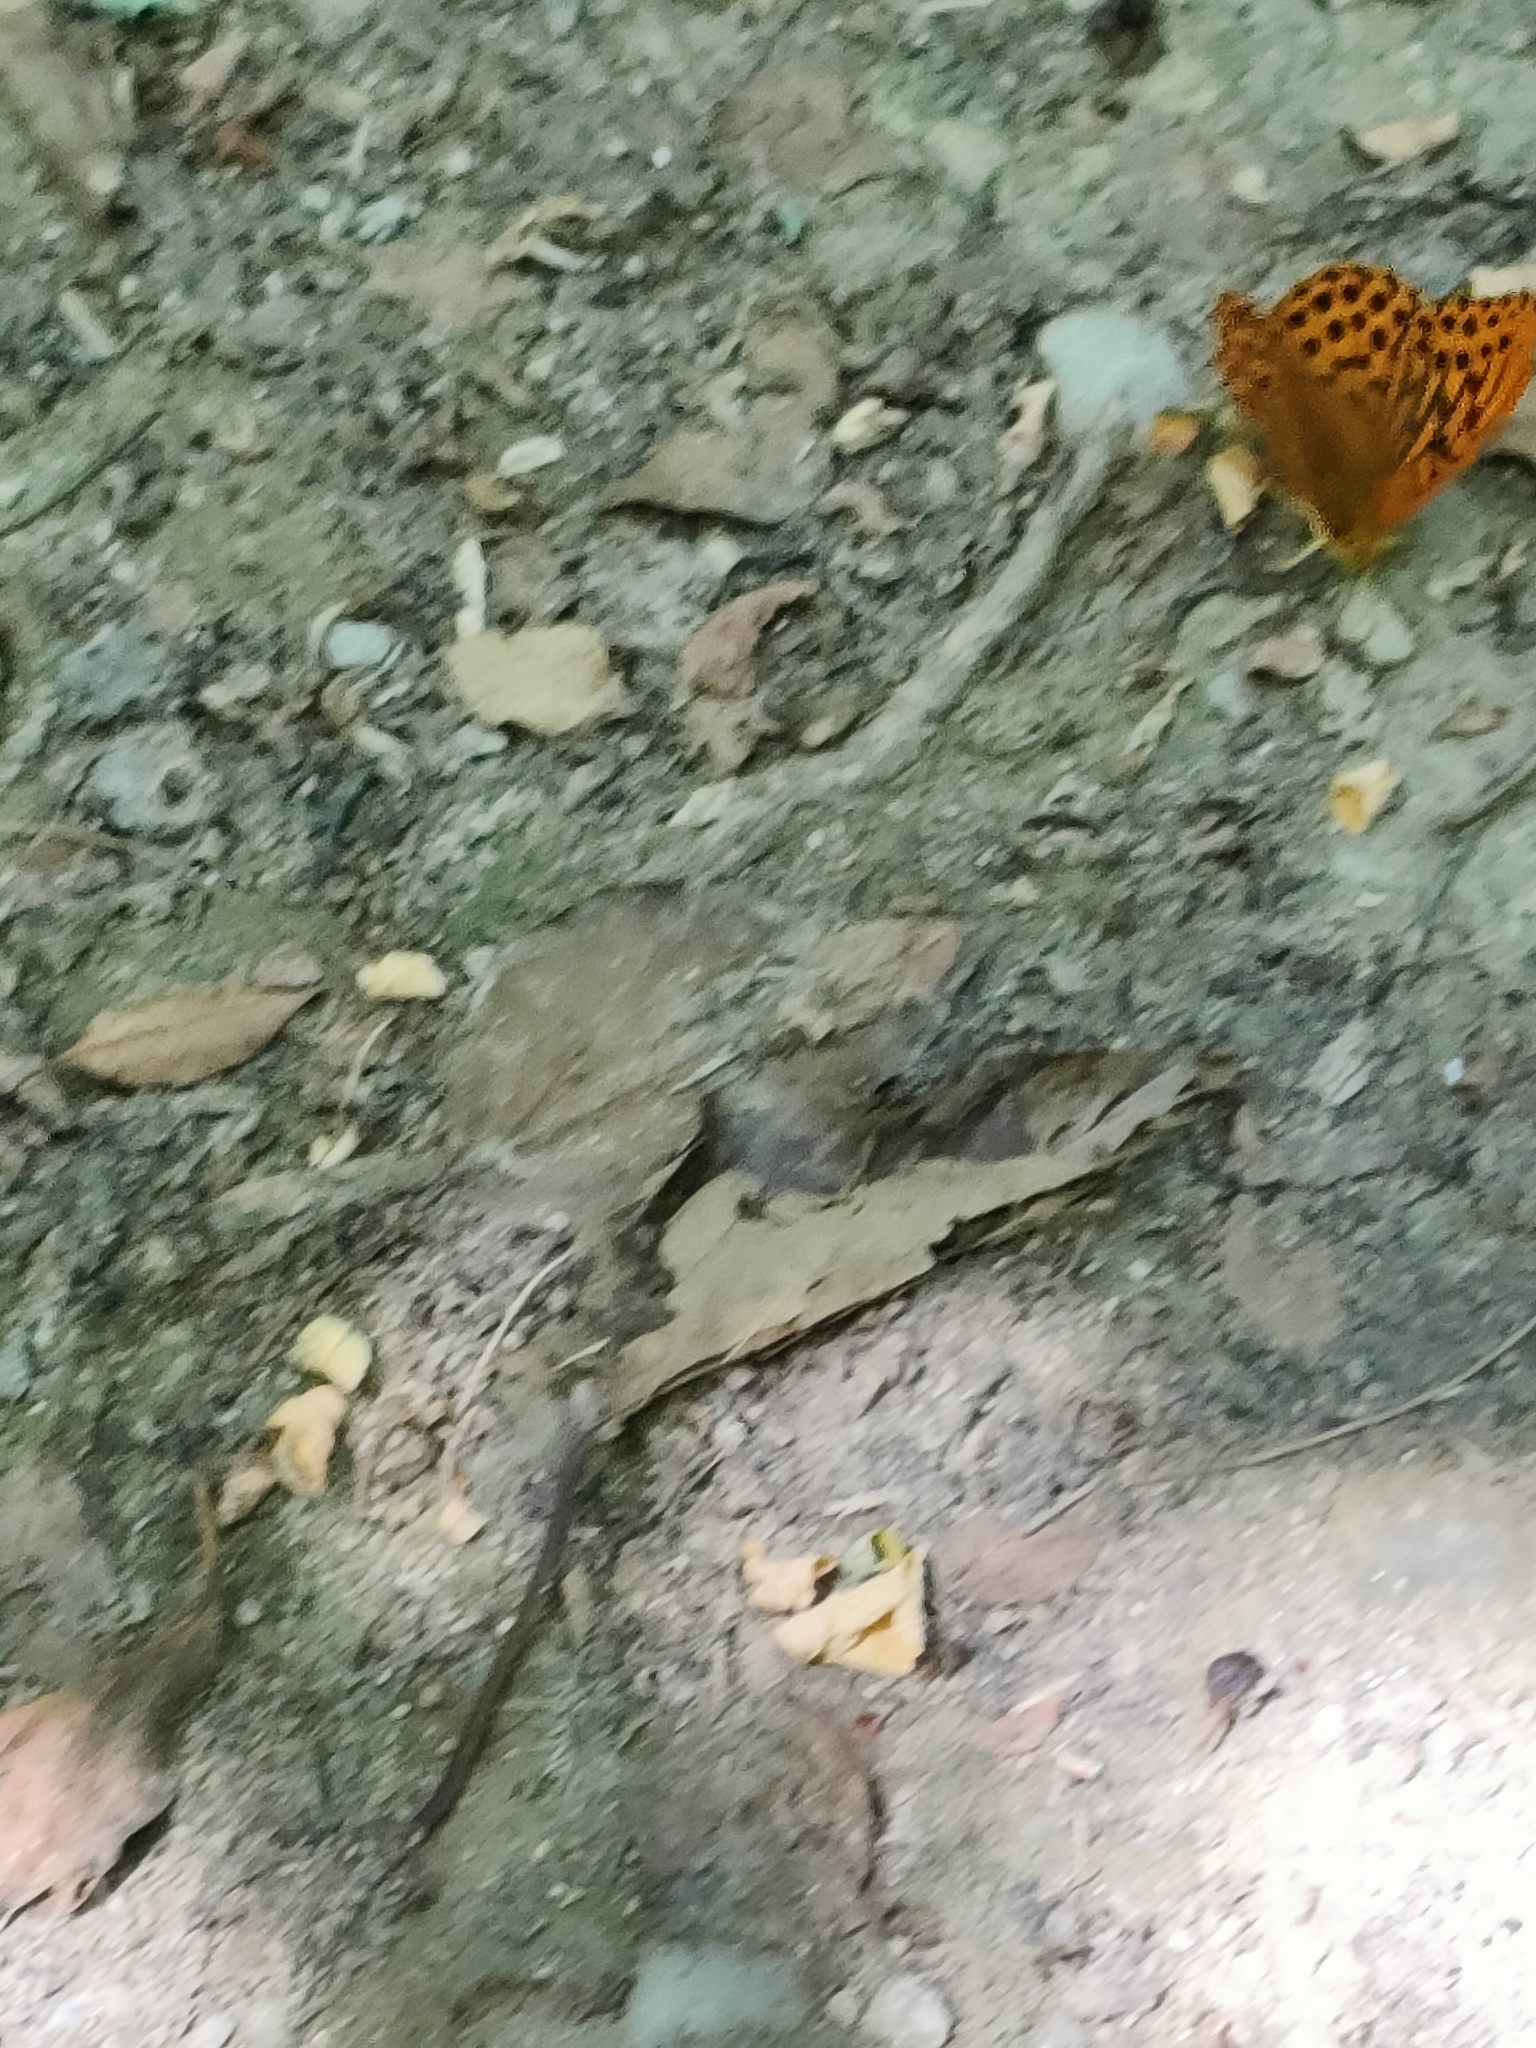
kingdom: Animalia
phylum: Arthropoda
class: Insecta
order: Lepidoptera
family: Nymphalidae
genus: Argynnis
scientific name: Argynnis paphia
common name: Silver-washed fritillary
